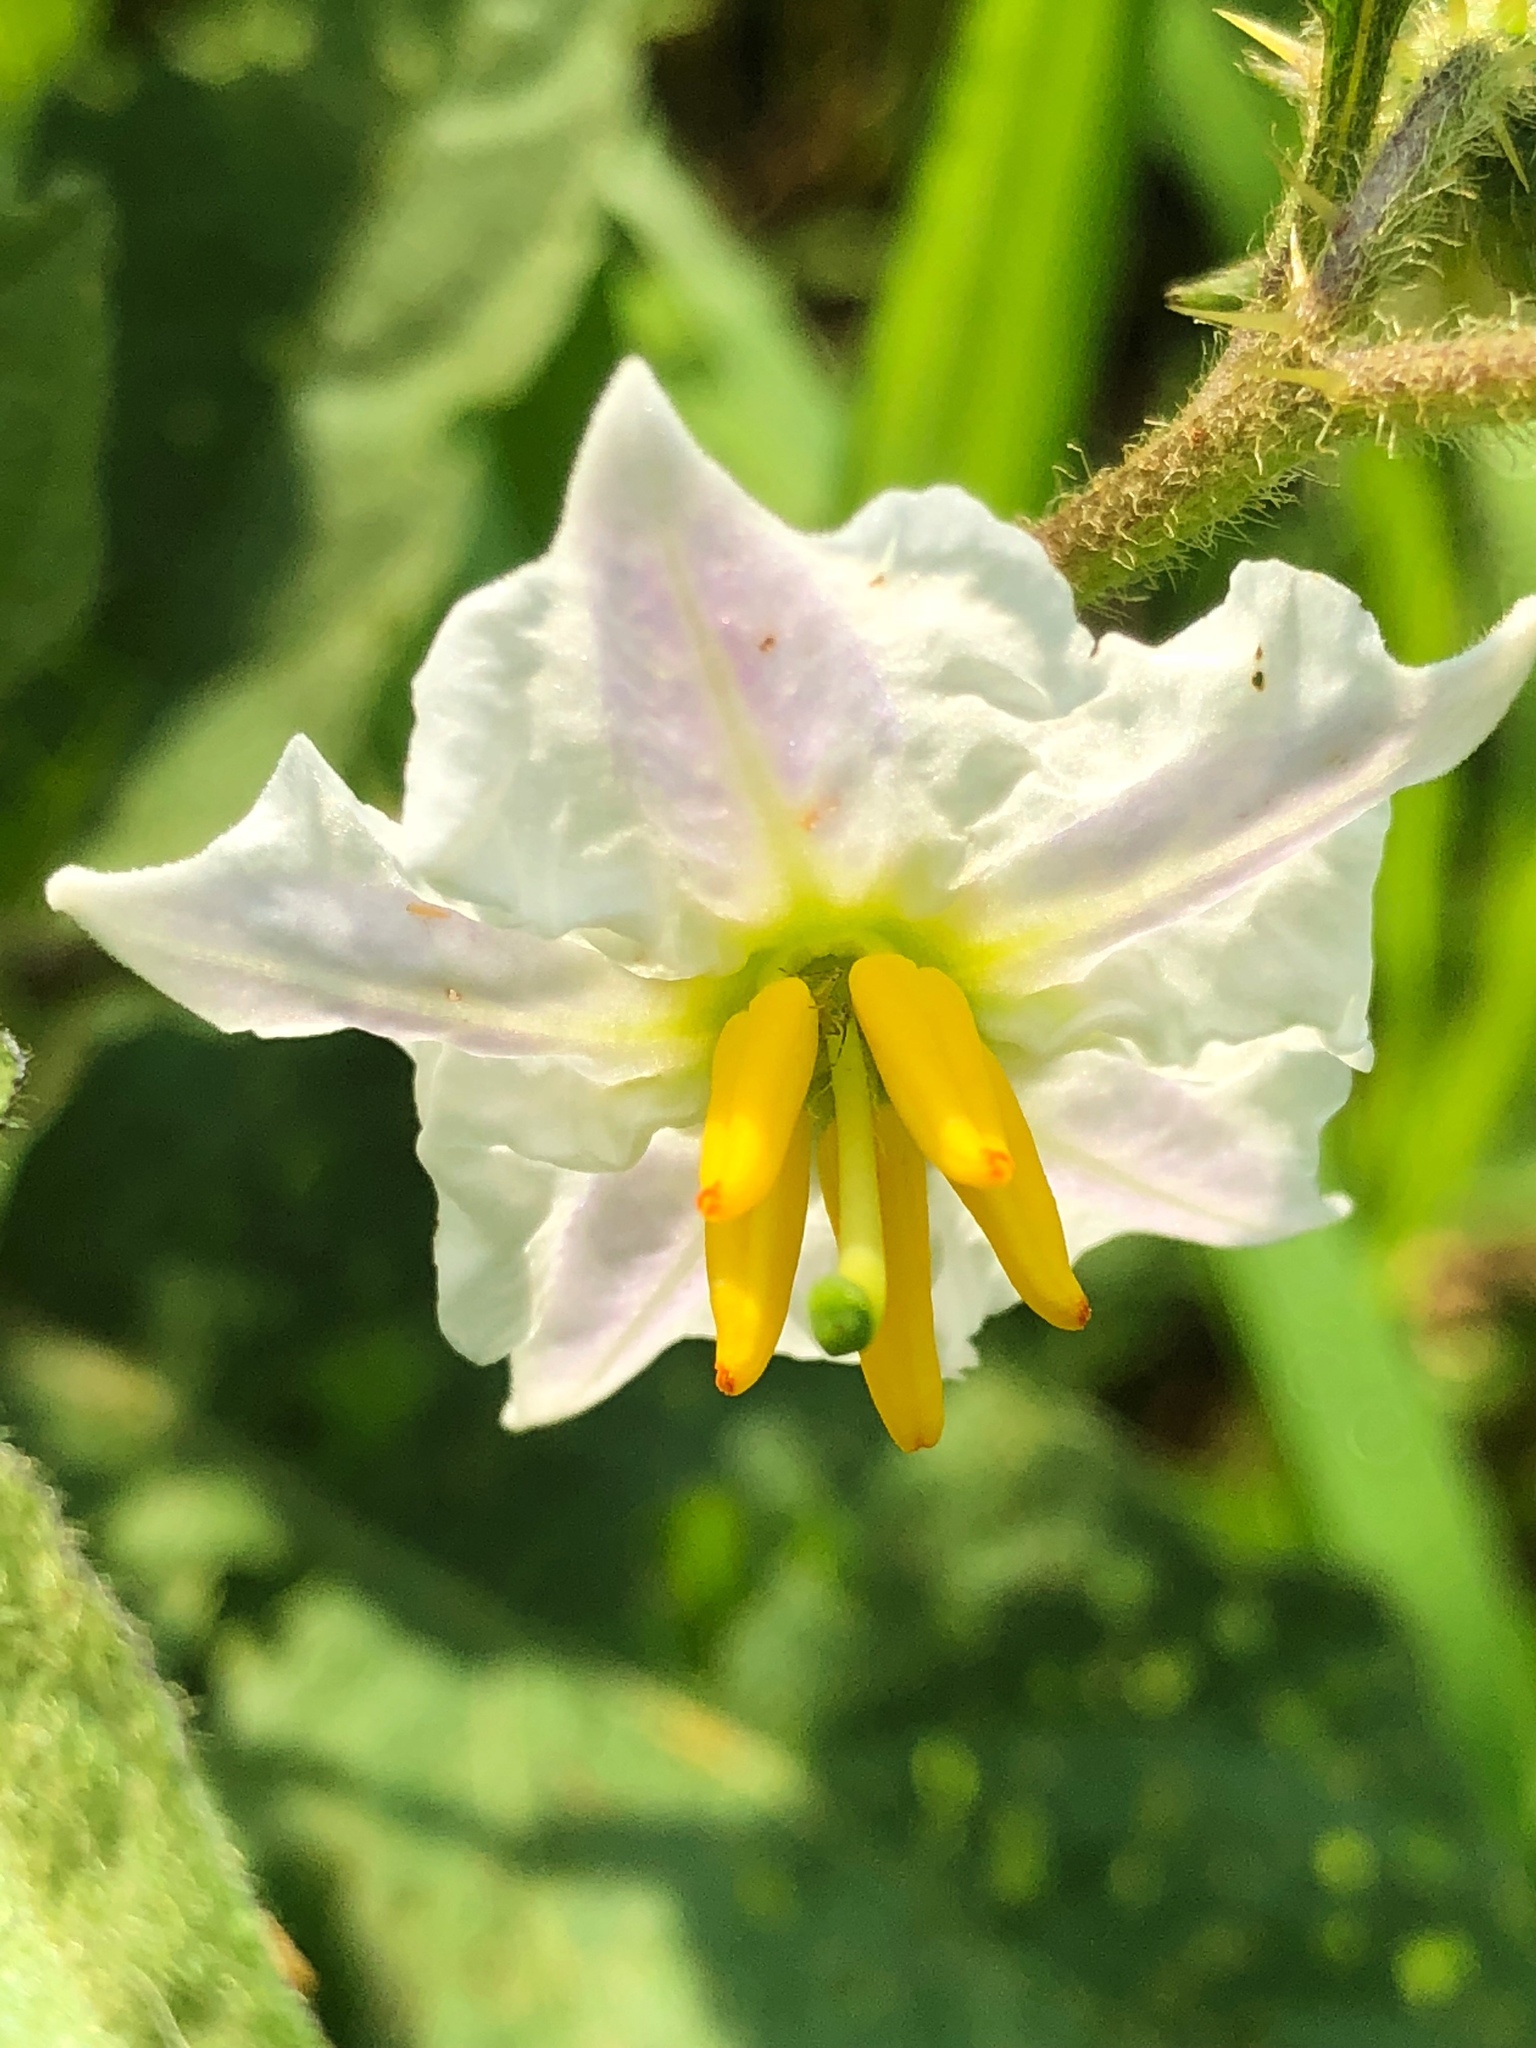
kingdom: Plantae
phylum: Tracheophyta
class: Magnoliopsida
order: Solanales
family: Solanaceae
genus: Solanum
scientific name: Solanum carolinense
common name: Horse-nettle
